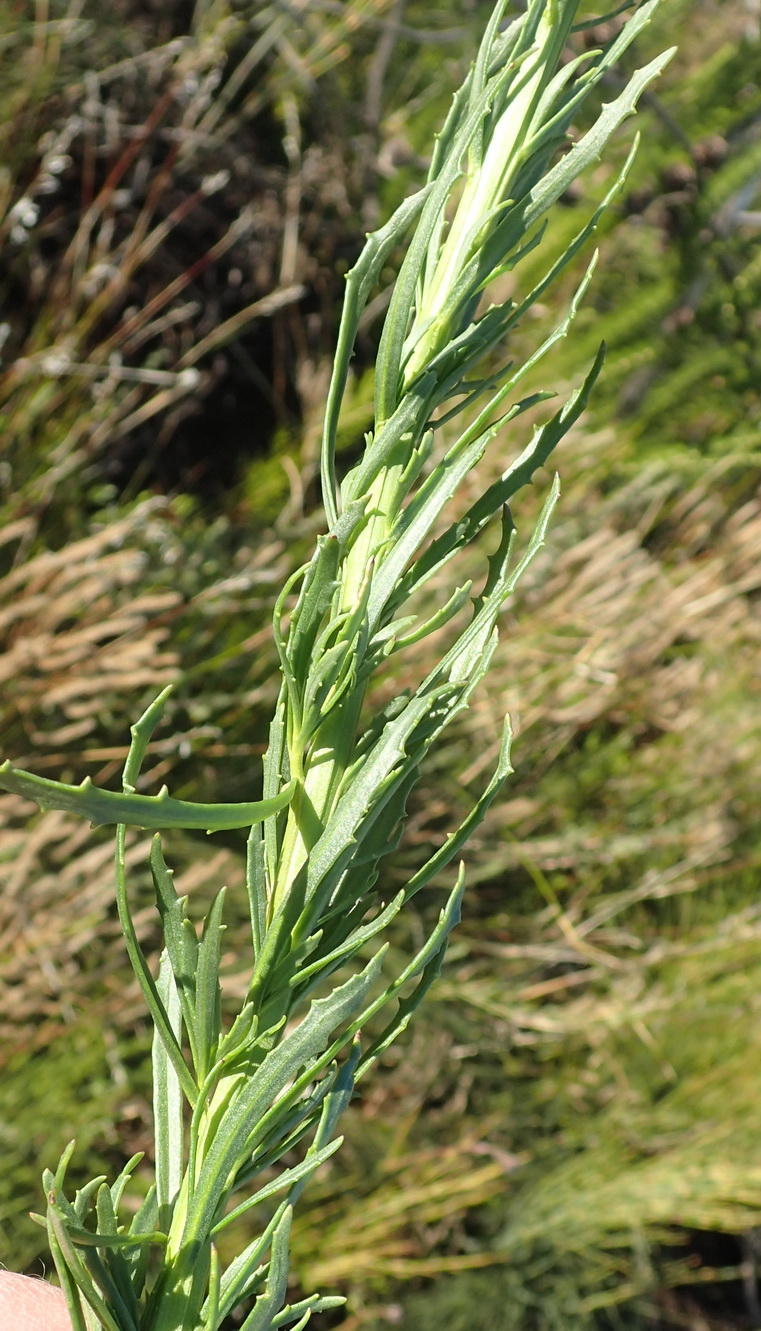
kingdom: Plantae
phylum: Tracheophyta
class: Magnoliopsida
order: Lamiales
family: Scrophulariaceae
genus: Pseudoselago
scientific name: Pseudoselago outeniquensis
